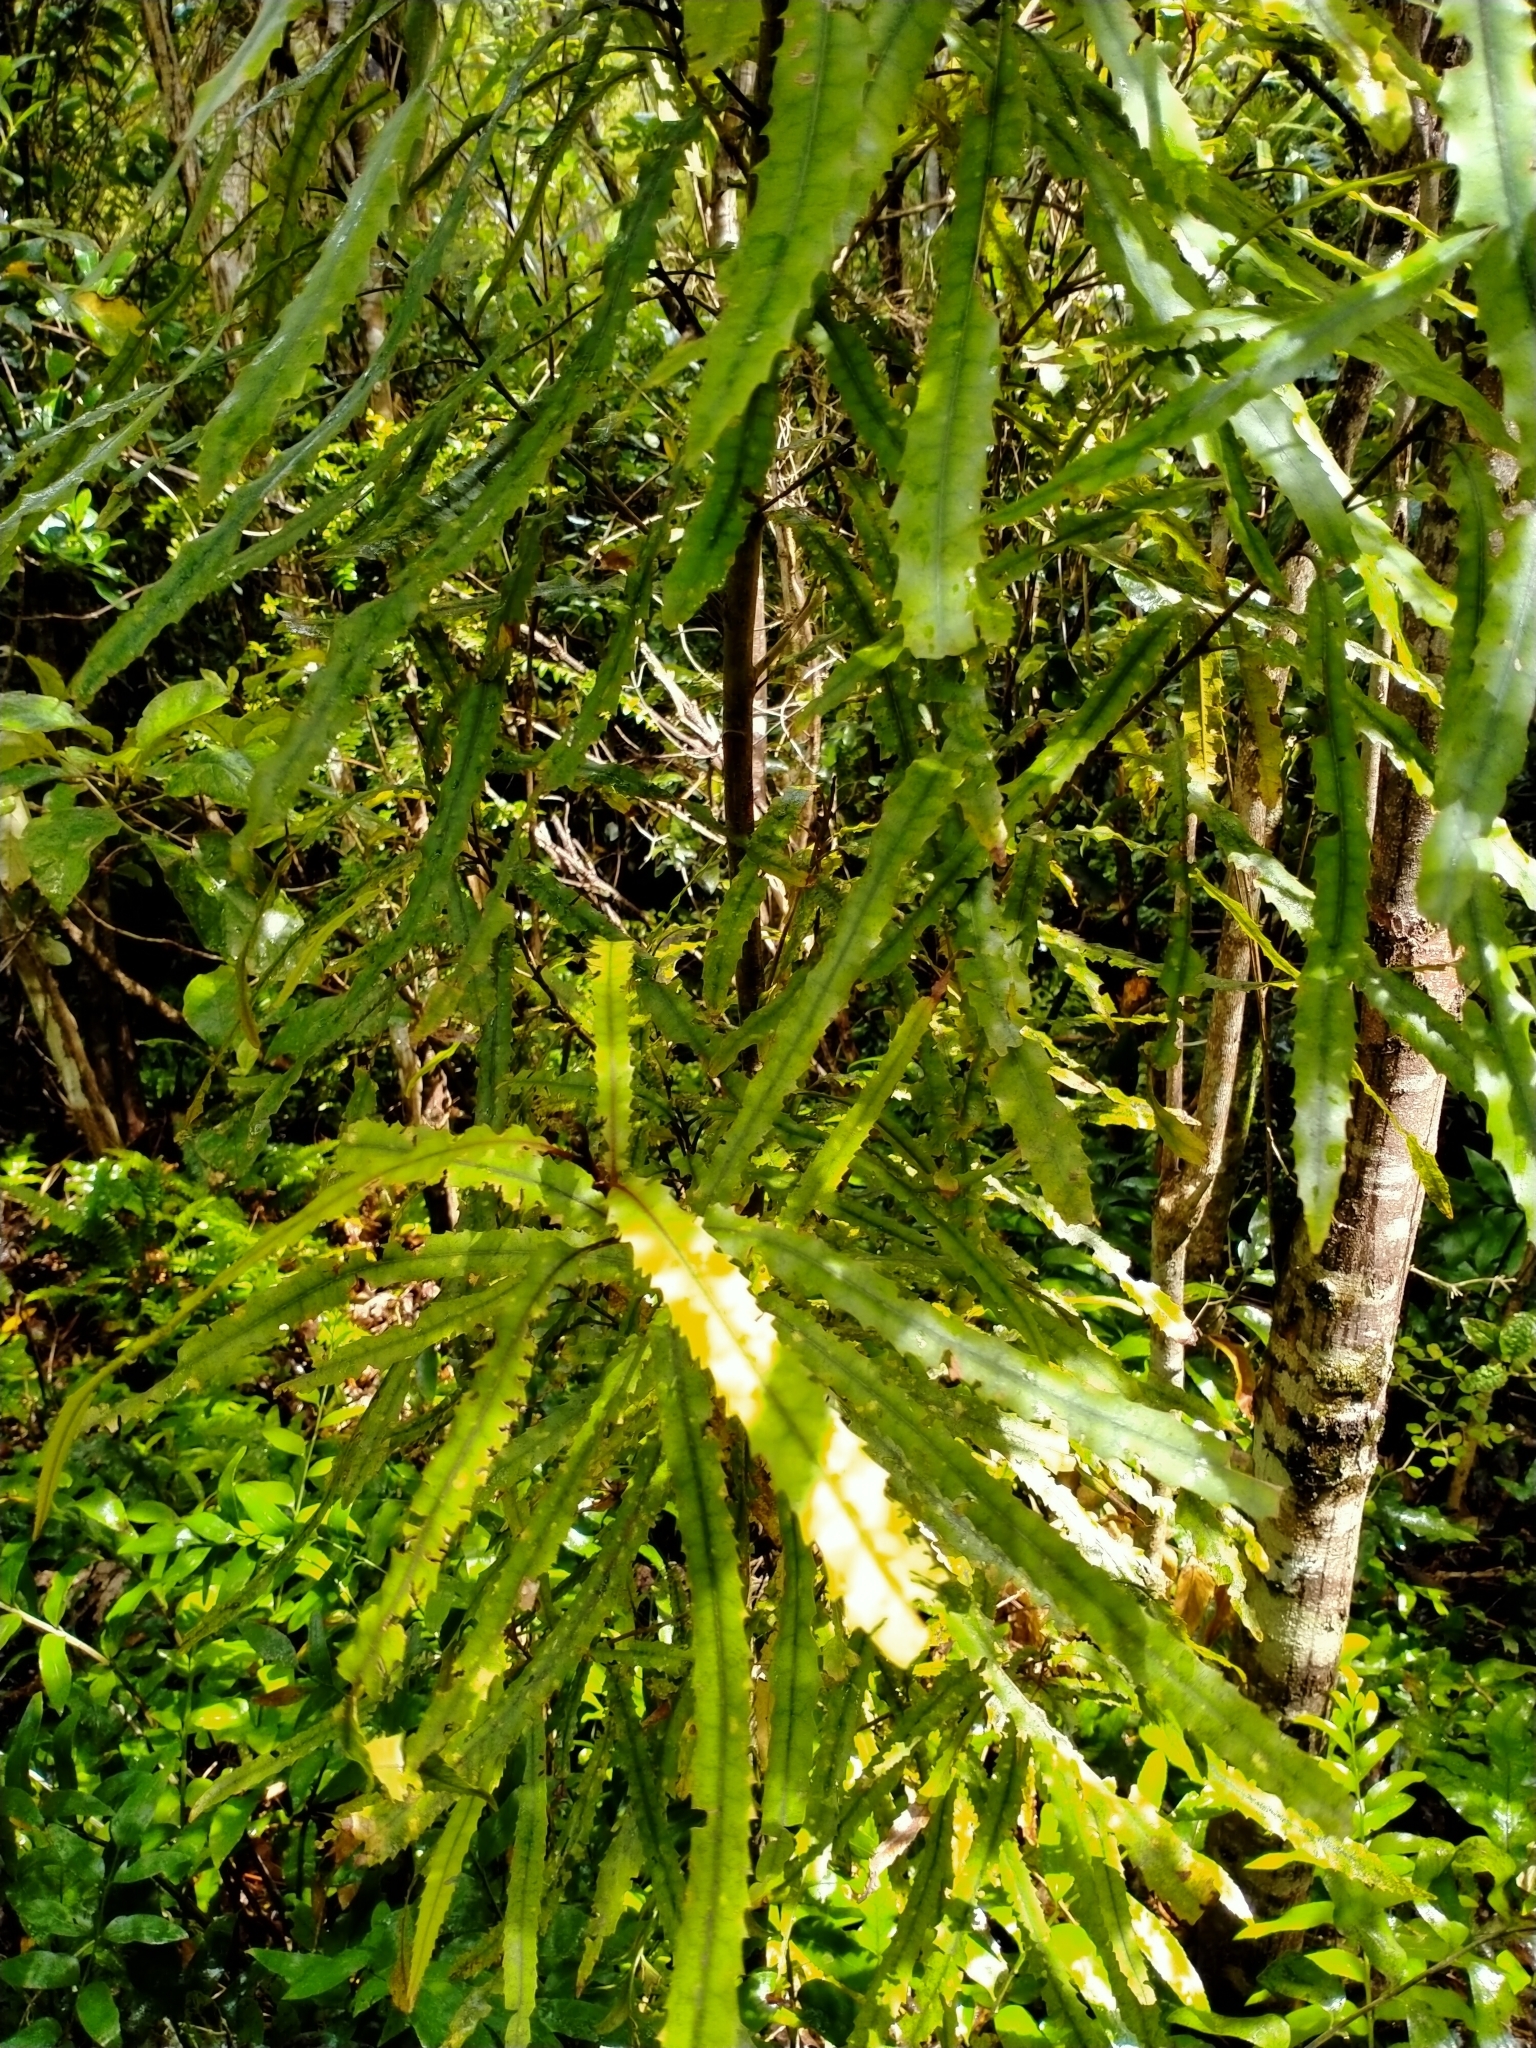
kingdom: Plantae
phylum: Tracheophyta
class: Magnoliopsida
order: Proteales
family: Proteaceae
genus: Knightia
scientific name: Knightia excelsa
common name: New zealand-honeysuckle
